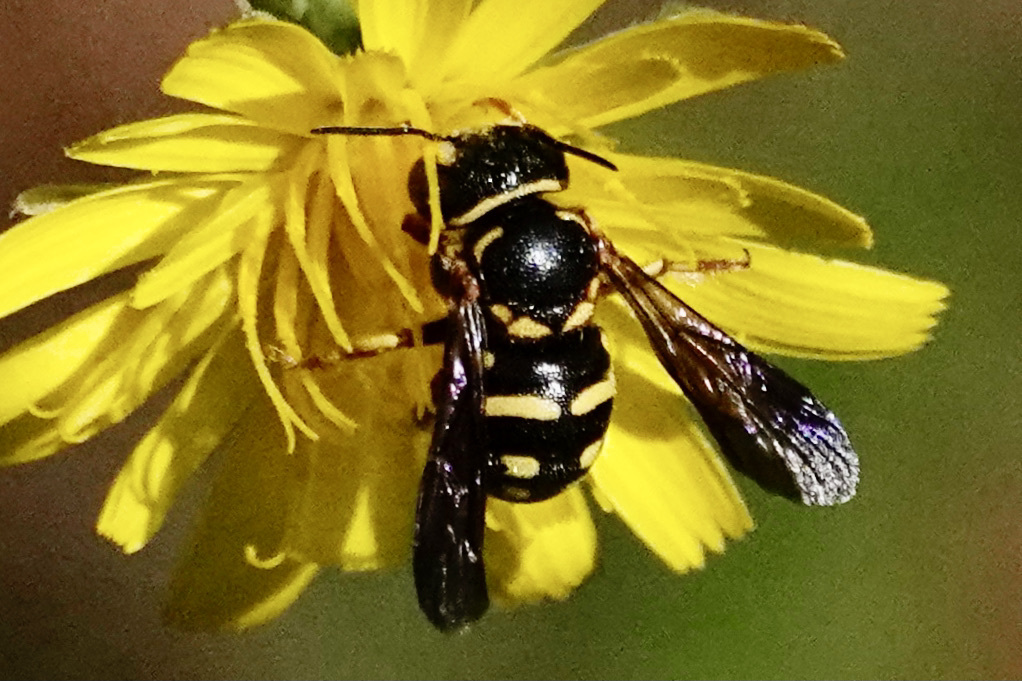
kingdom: Animalia
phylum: Arthropoda
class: Insecta
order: Hymenoptera
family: Megachilidae
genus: Anthidiellum
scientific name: Anthidiellum notatum
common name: Northern rotund-resin bee
